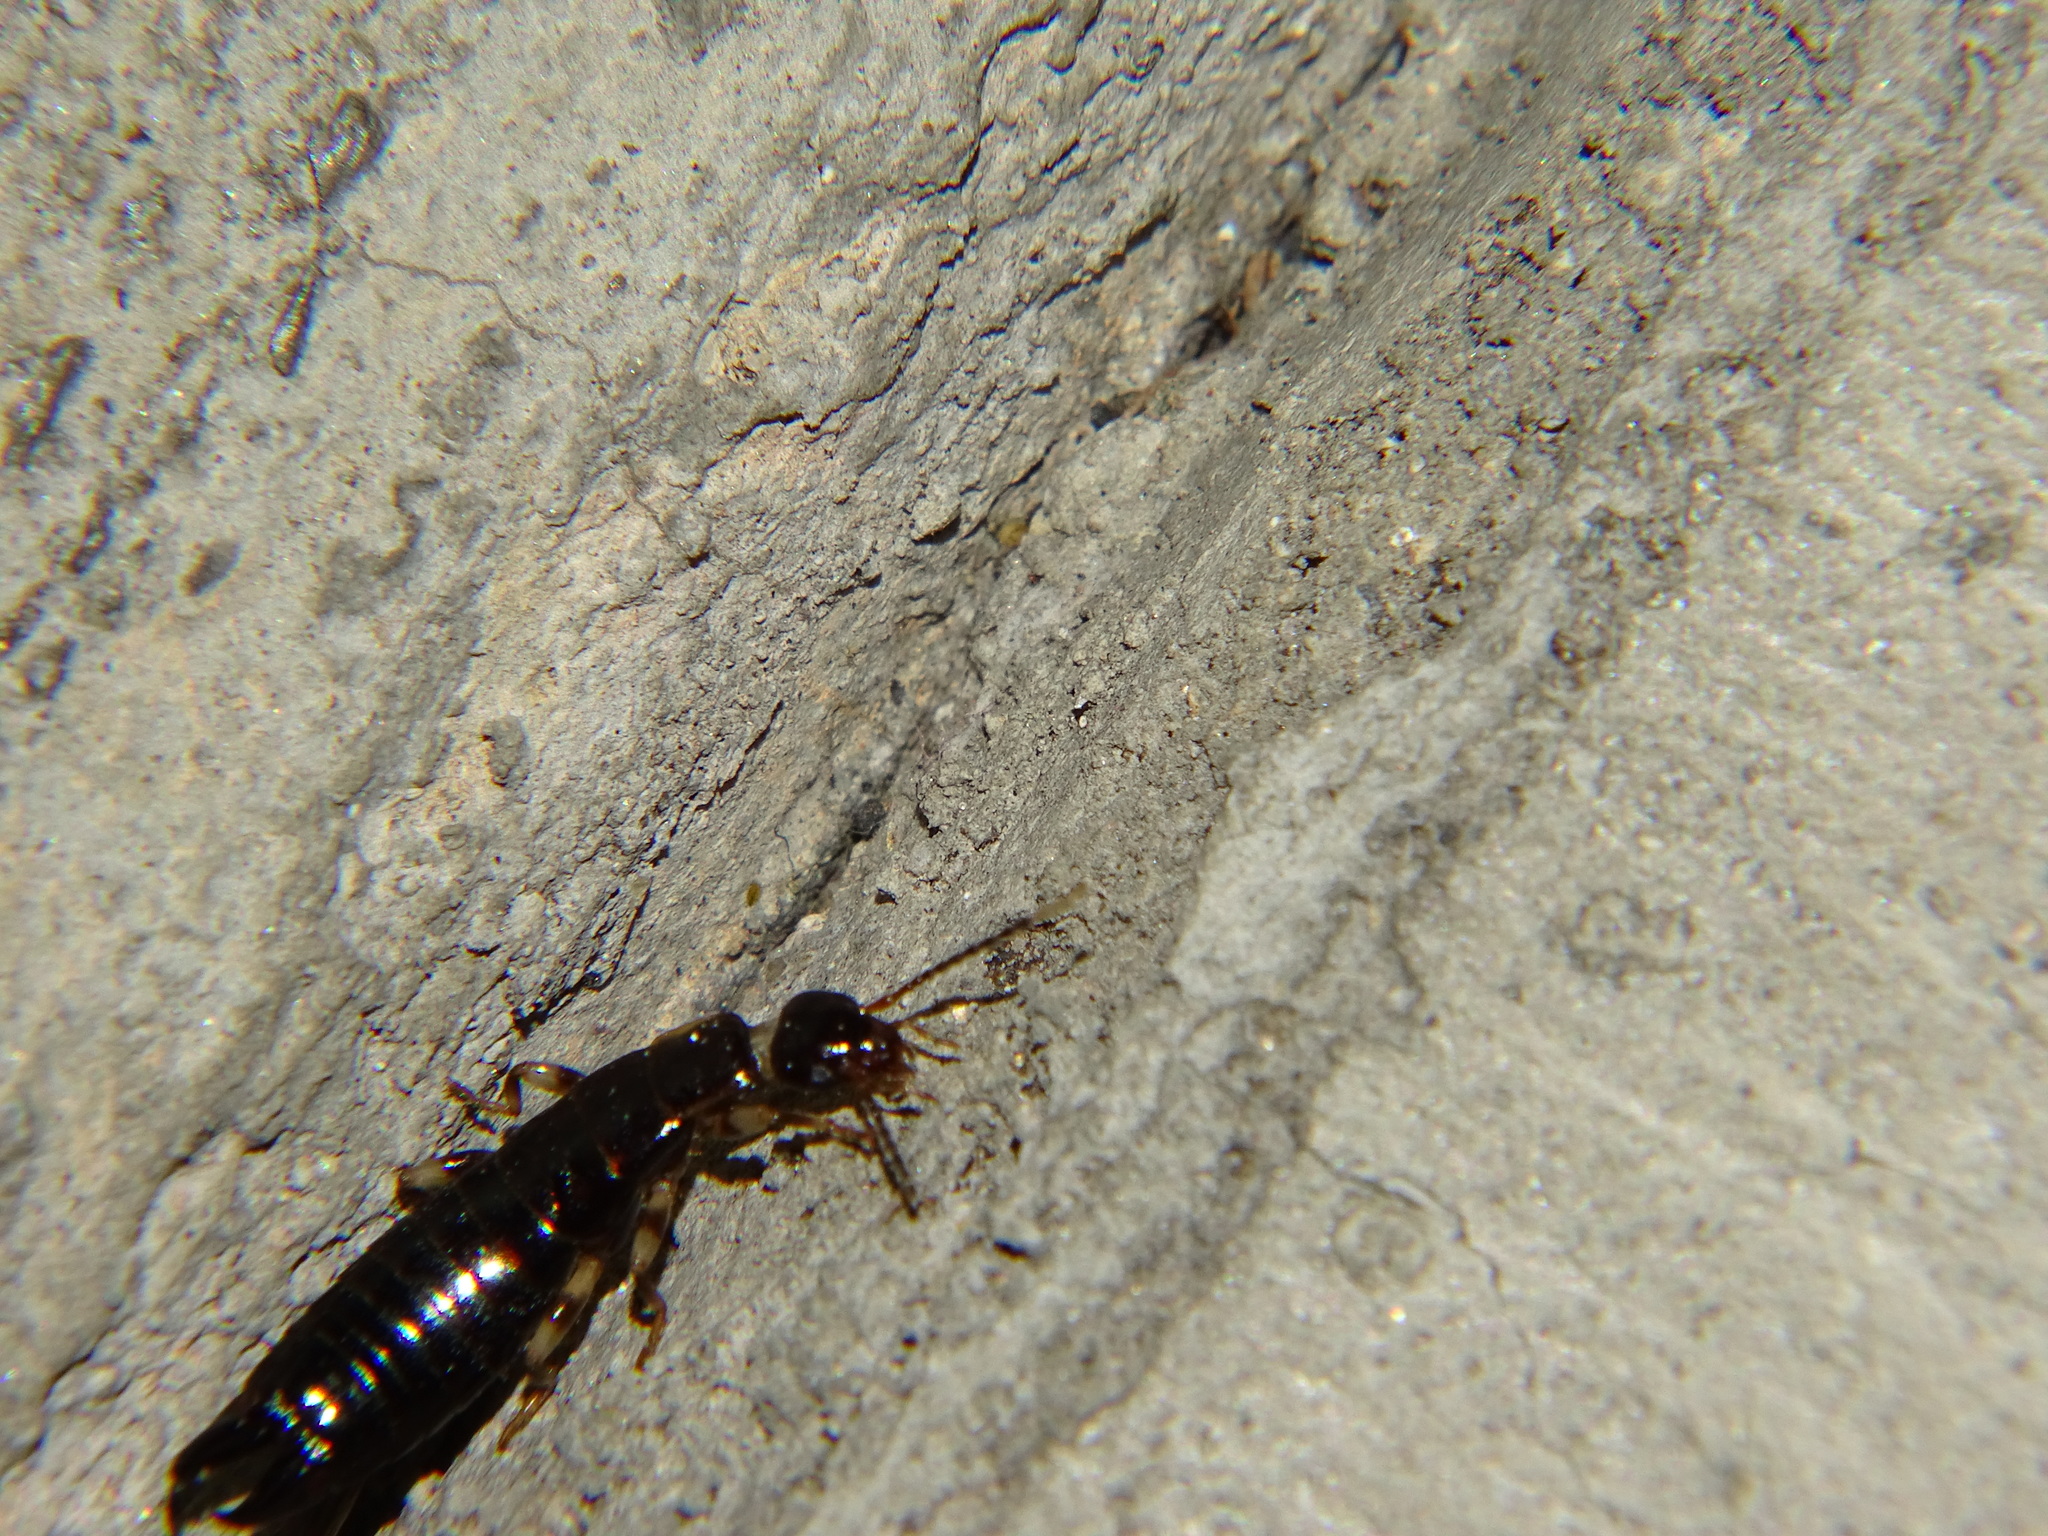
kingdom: Animalia
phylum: Arthropoda
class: Insecta
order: Dermaptera
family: Anisolabididae
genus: Euborellia
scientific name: Euborellia annulipes
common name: Ringlegged earwig
